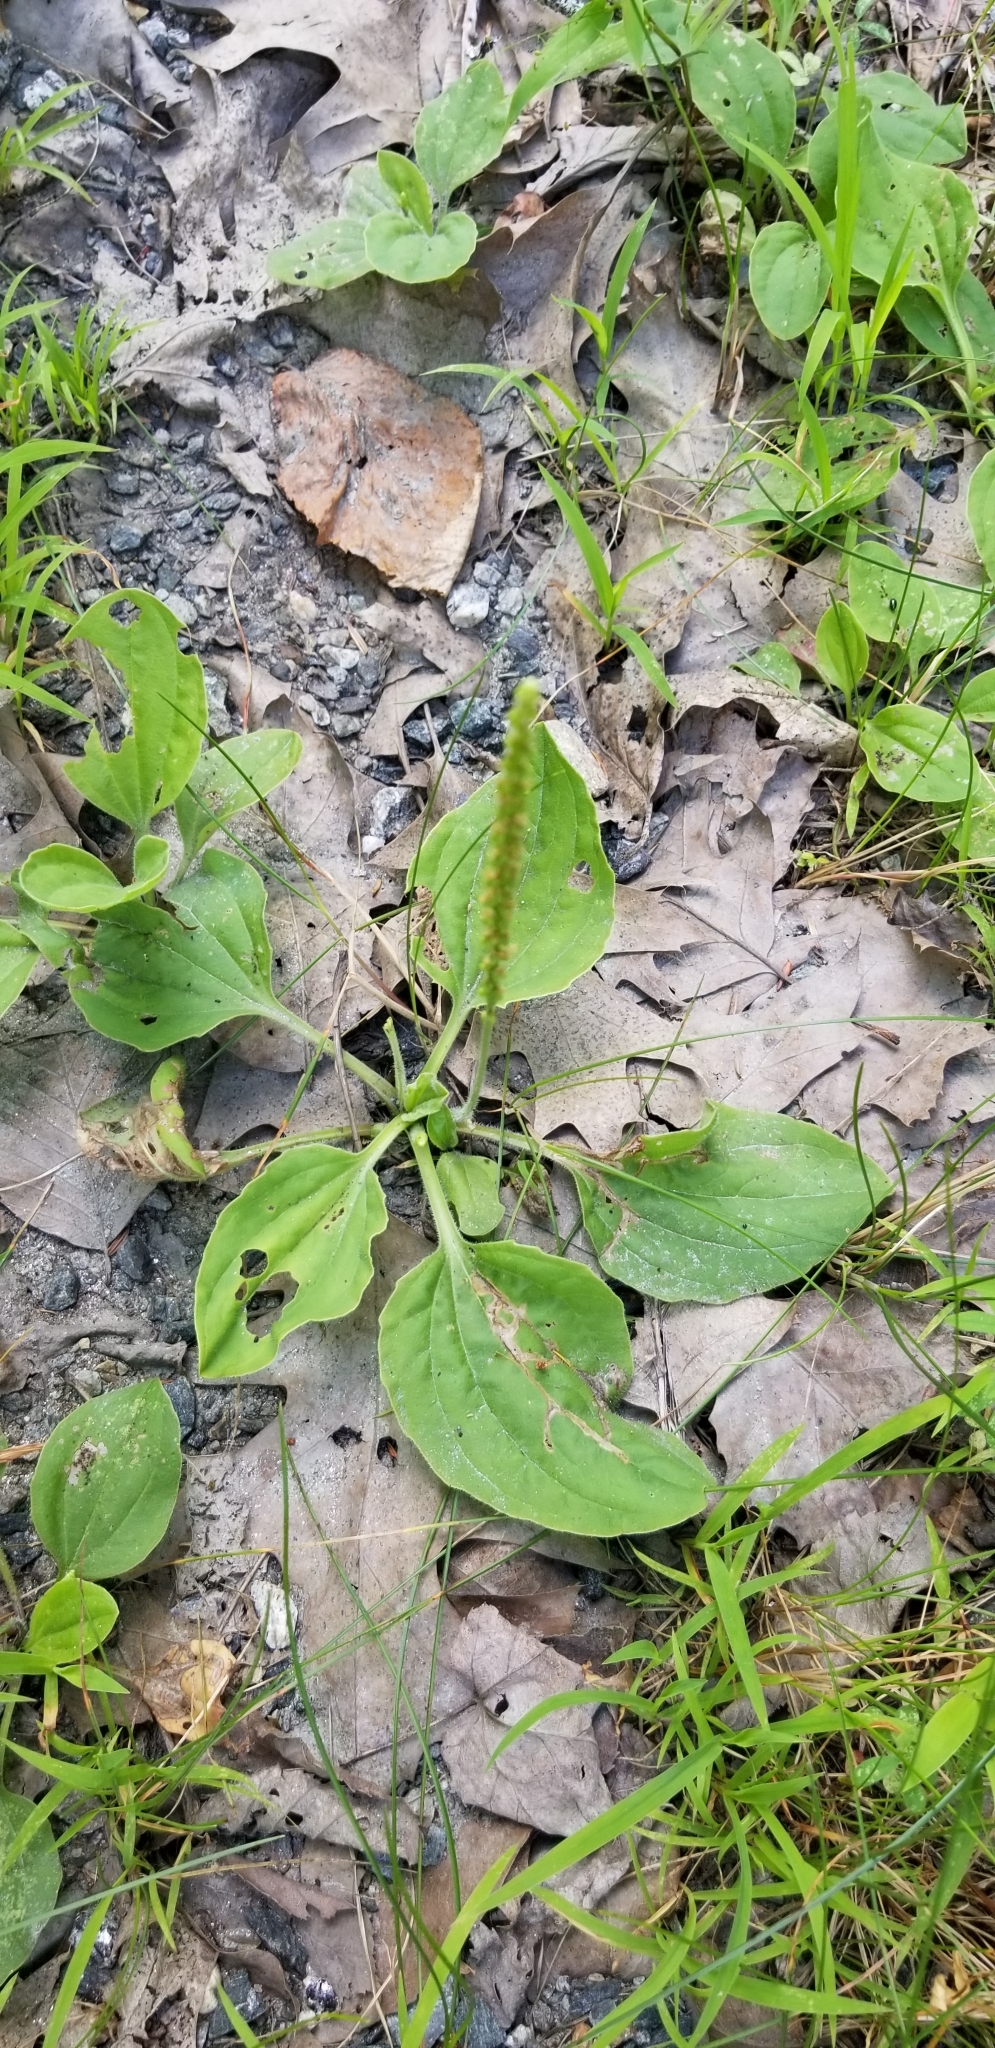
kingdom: Plantae
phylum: Tracheophyta
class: Magnoliopsida
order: Lamiales
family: Plantaginaceae
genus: Plantago
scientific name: Plantago major
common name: Common plantain
